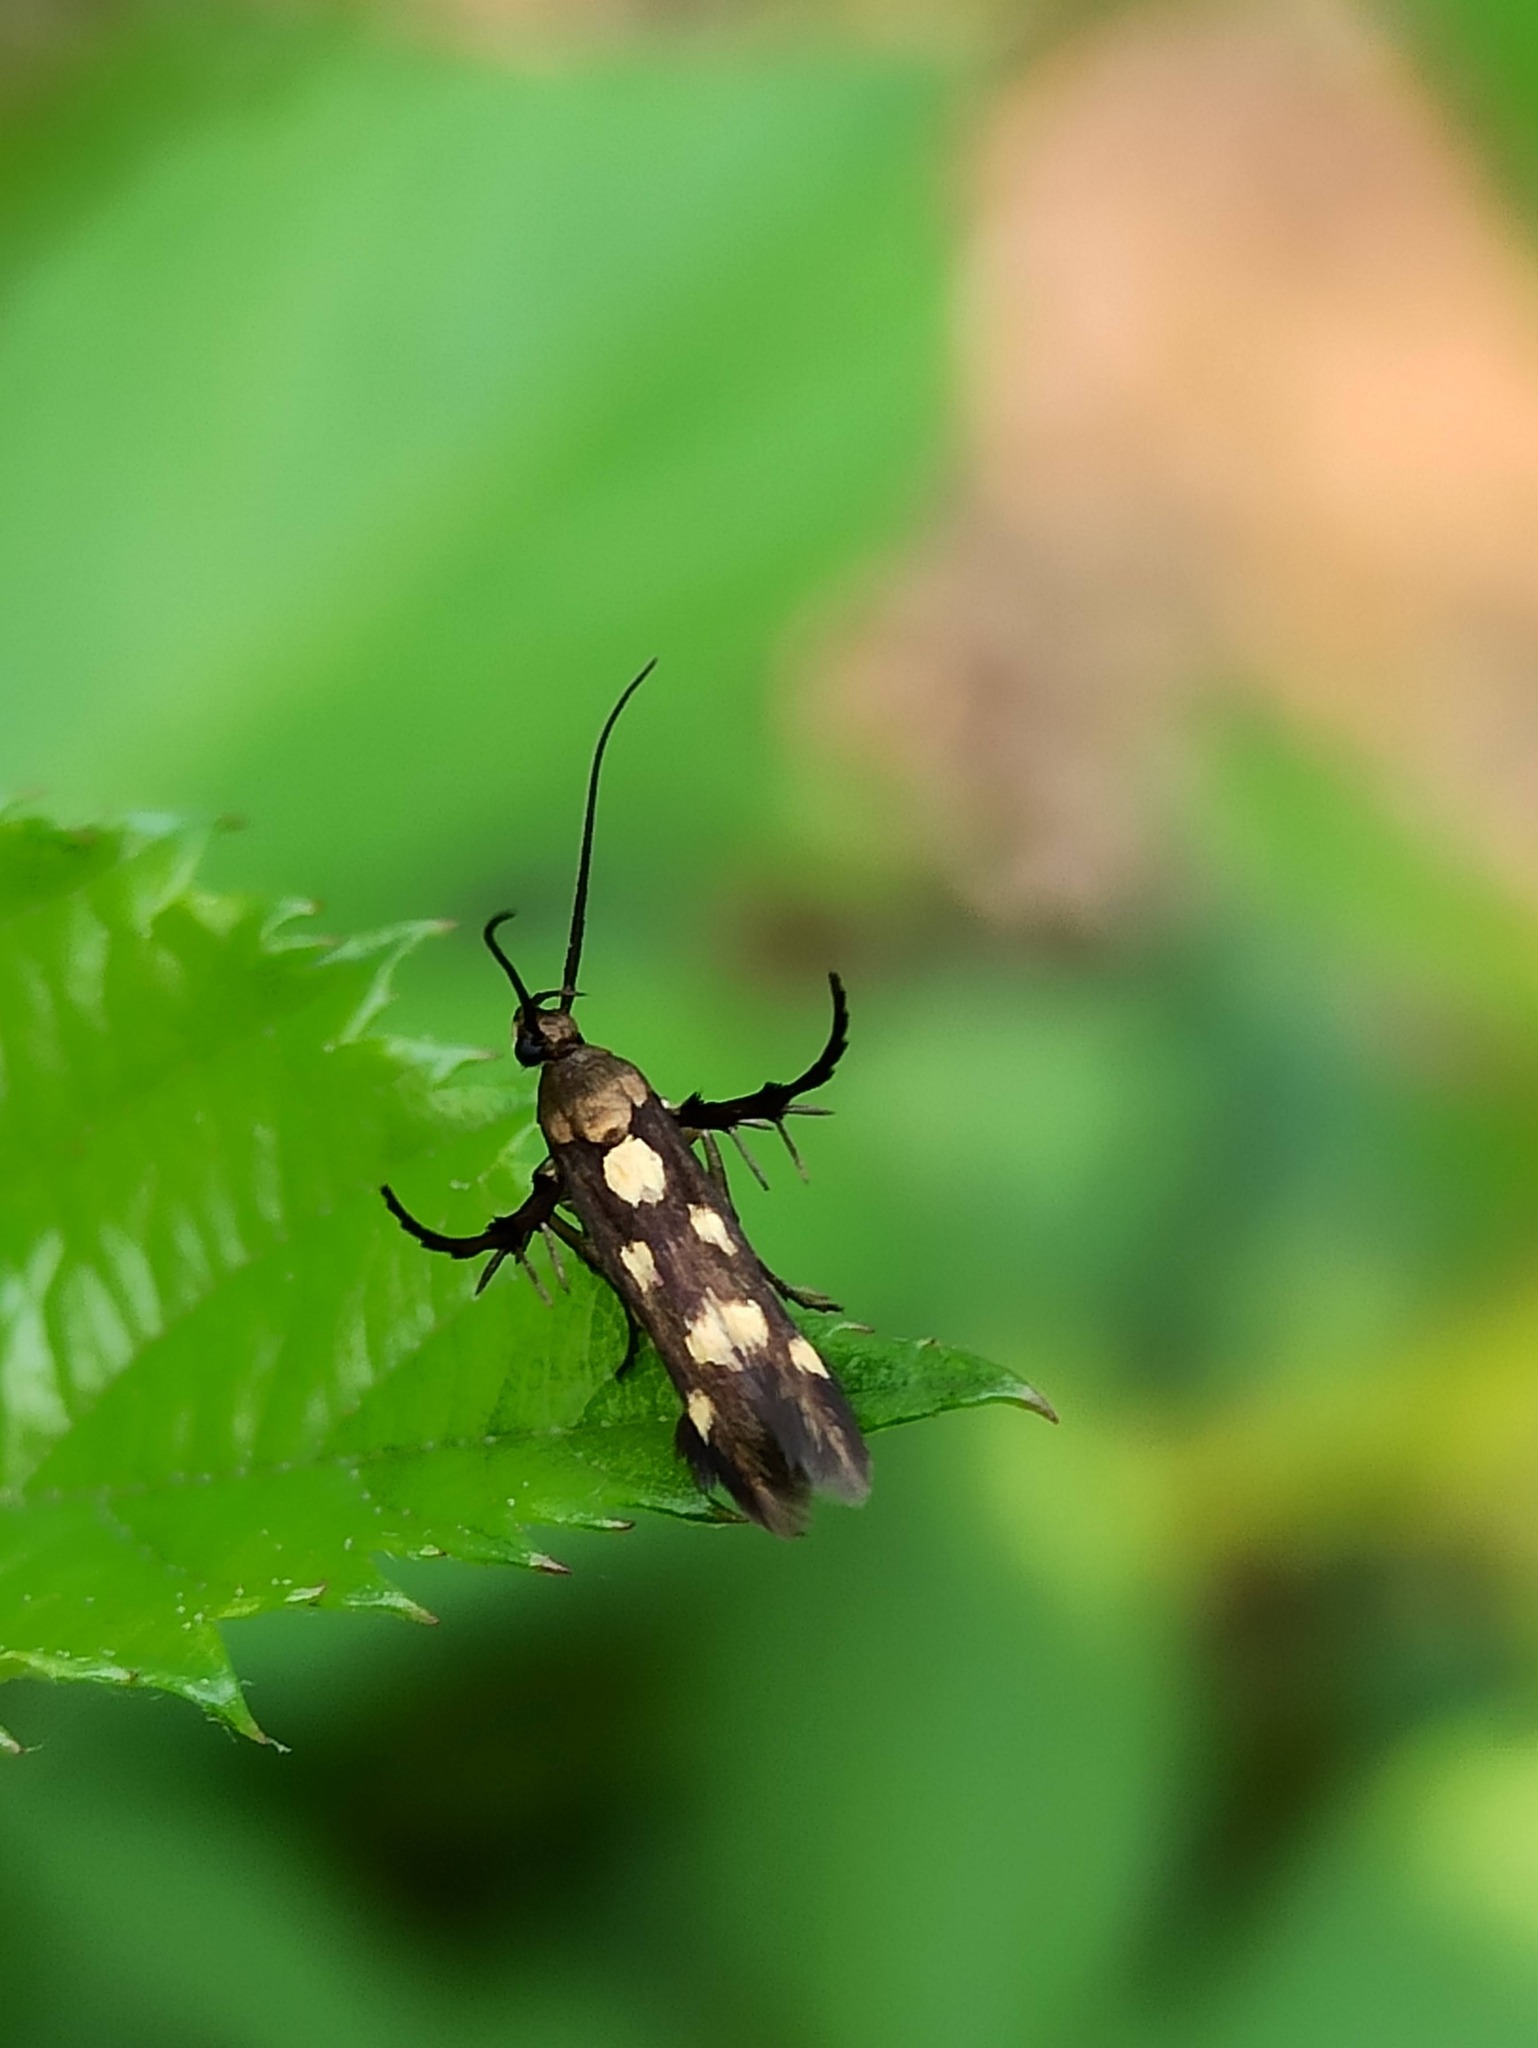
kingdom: Animalia
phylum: Arthropoda
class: Insecta
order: Lepidoptera
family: Scythrididae
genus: Eretmocera
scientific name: Eretmocera impactella
